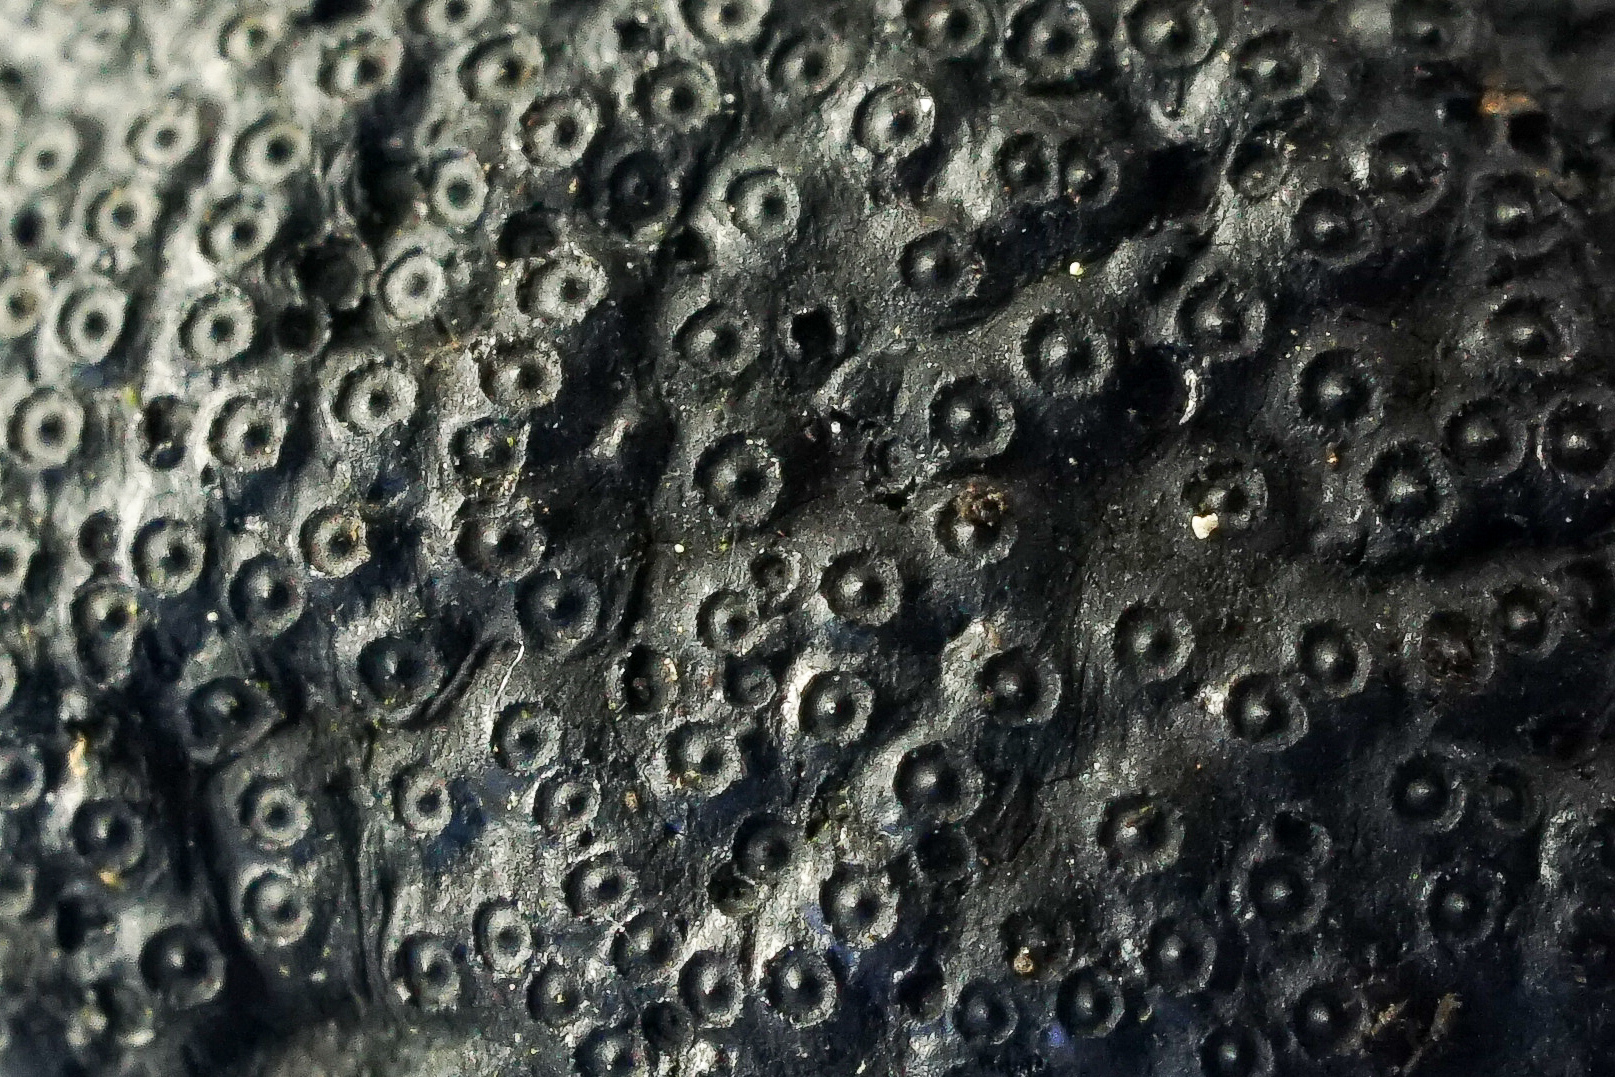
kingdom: Fungi
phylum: Ascomycota
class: Sordariomycetes
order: Xylariales
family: Hypoxylaceae
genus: Annulohypoxylon
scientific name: Annulohypoxylon thouarsianum
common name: Cramp balls
